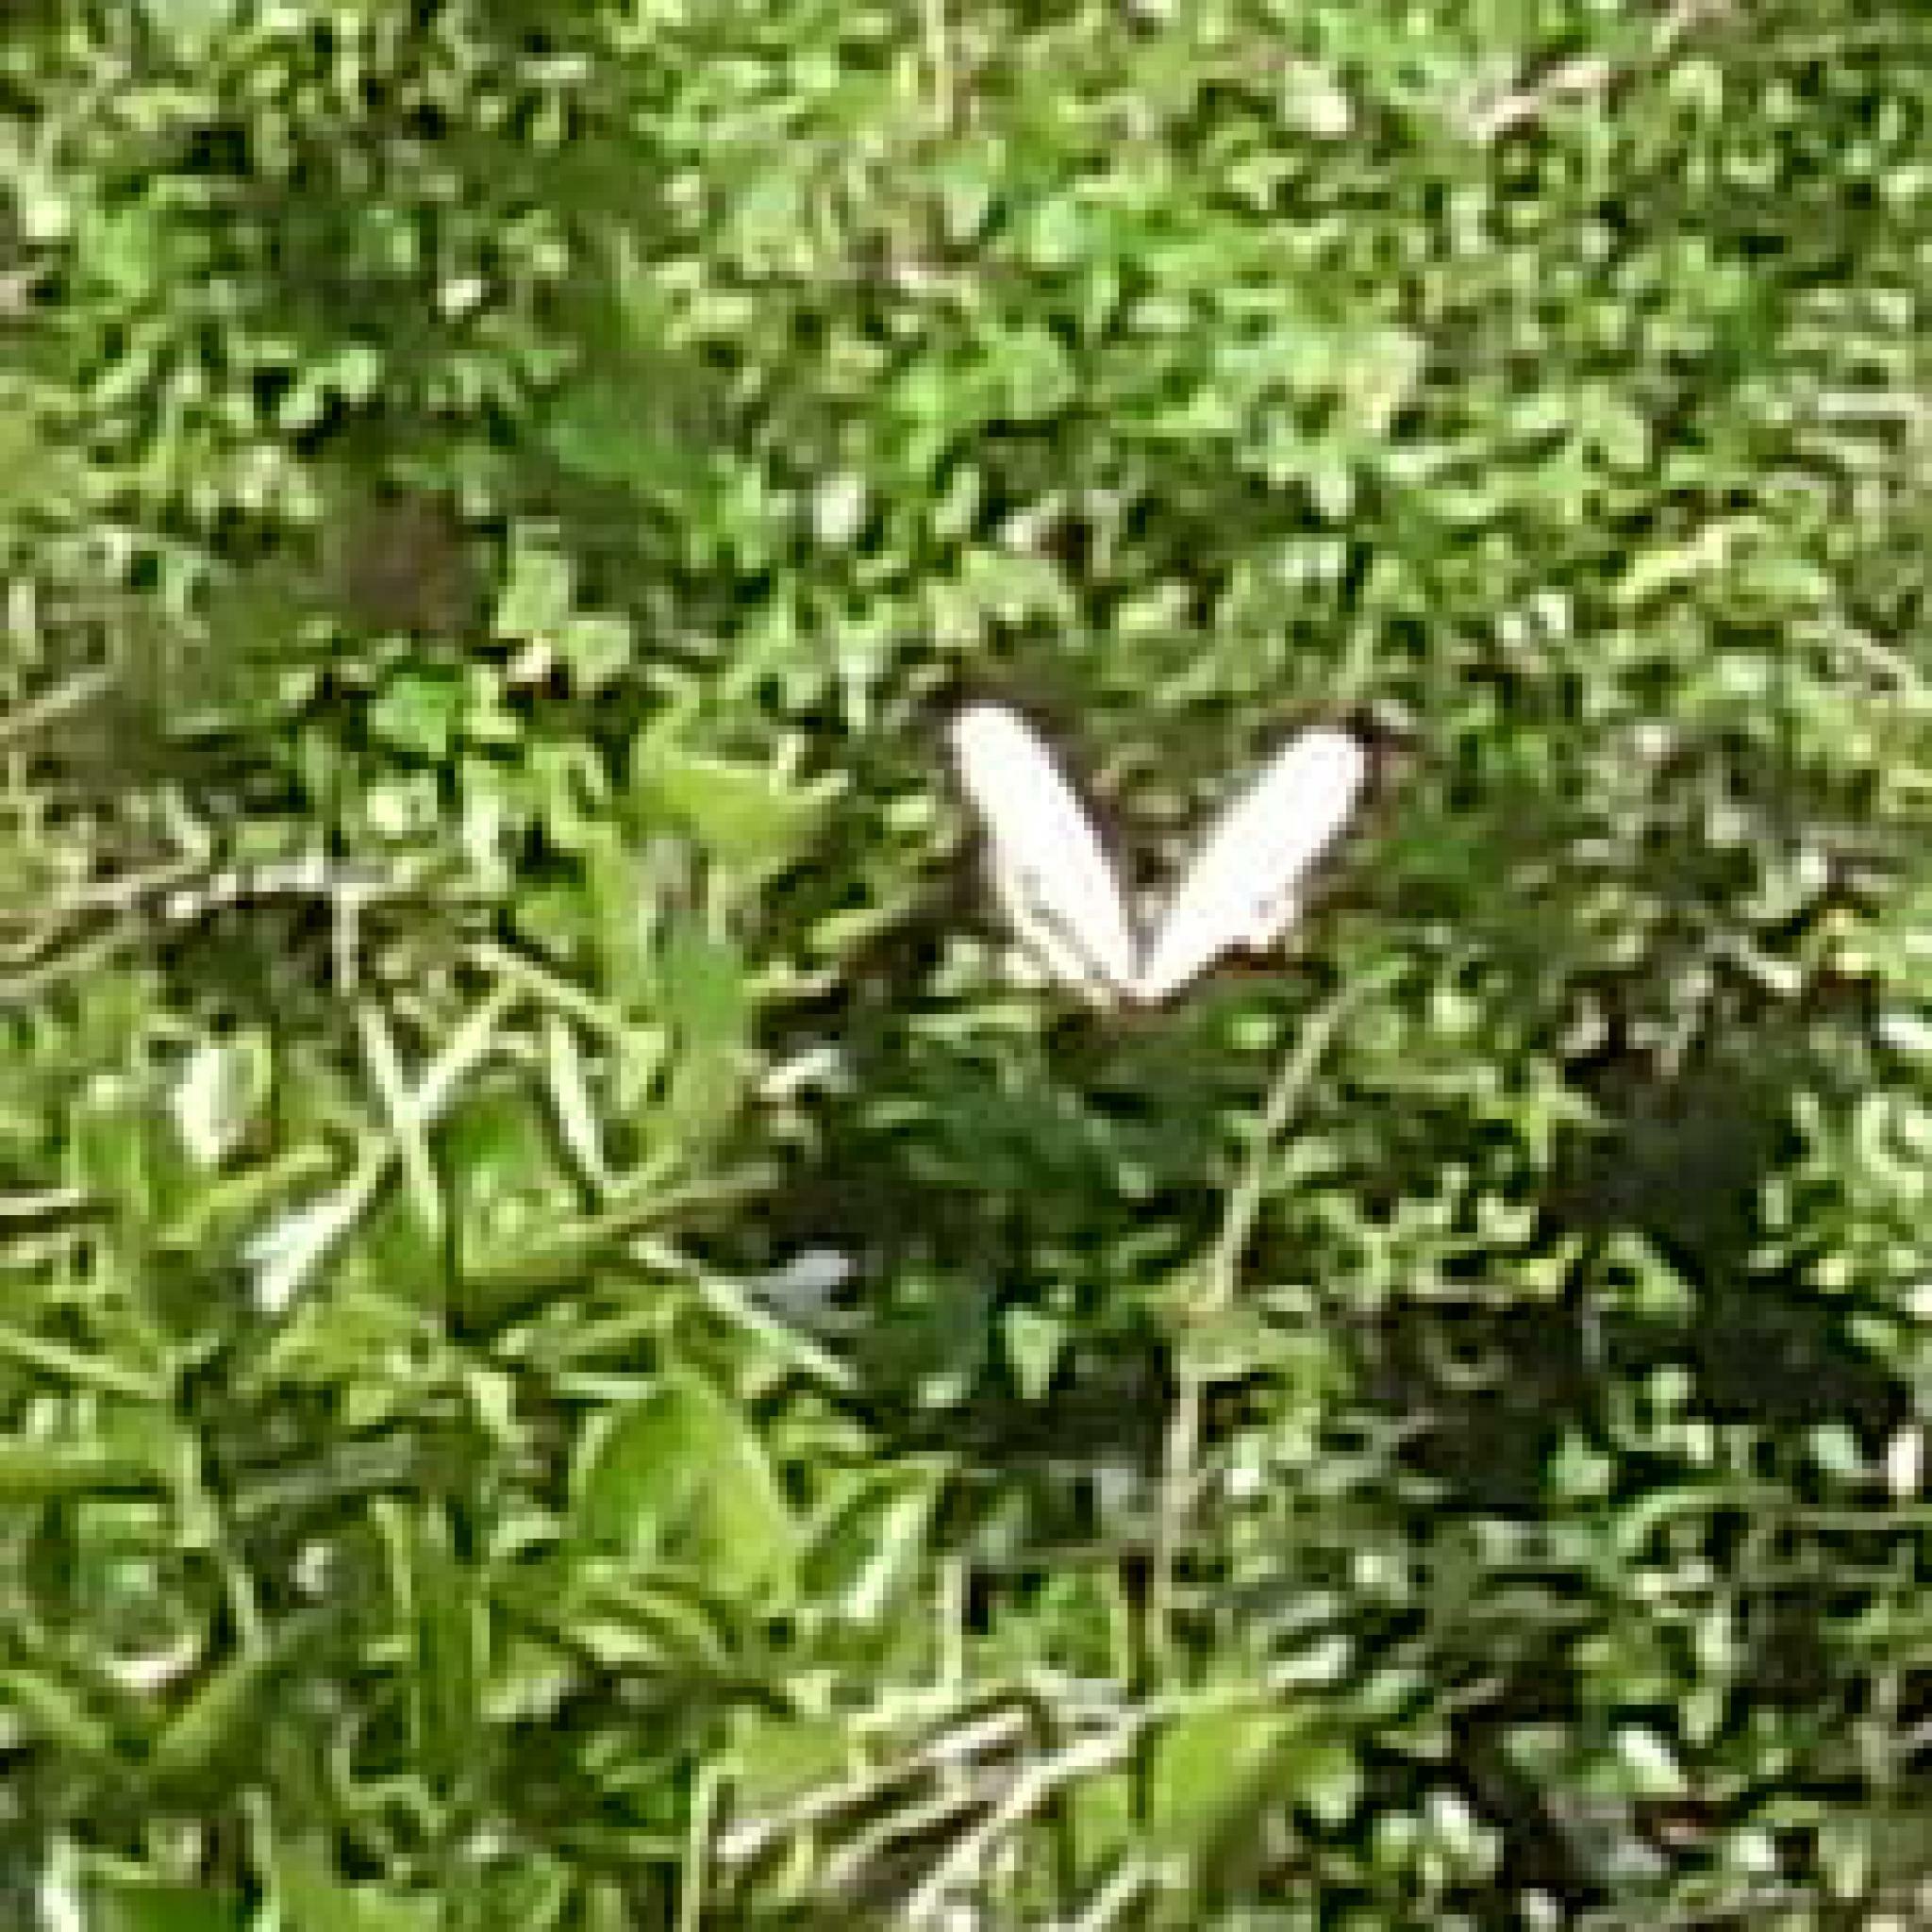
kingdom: Animalia
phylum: Arthropoda
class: Insecta
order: Lepidoptera
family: Papilionidae
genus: Papilio
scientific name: Papilio dardanus
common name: Flying handkerchief
